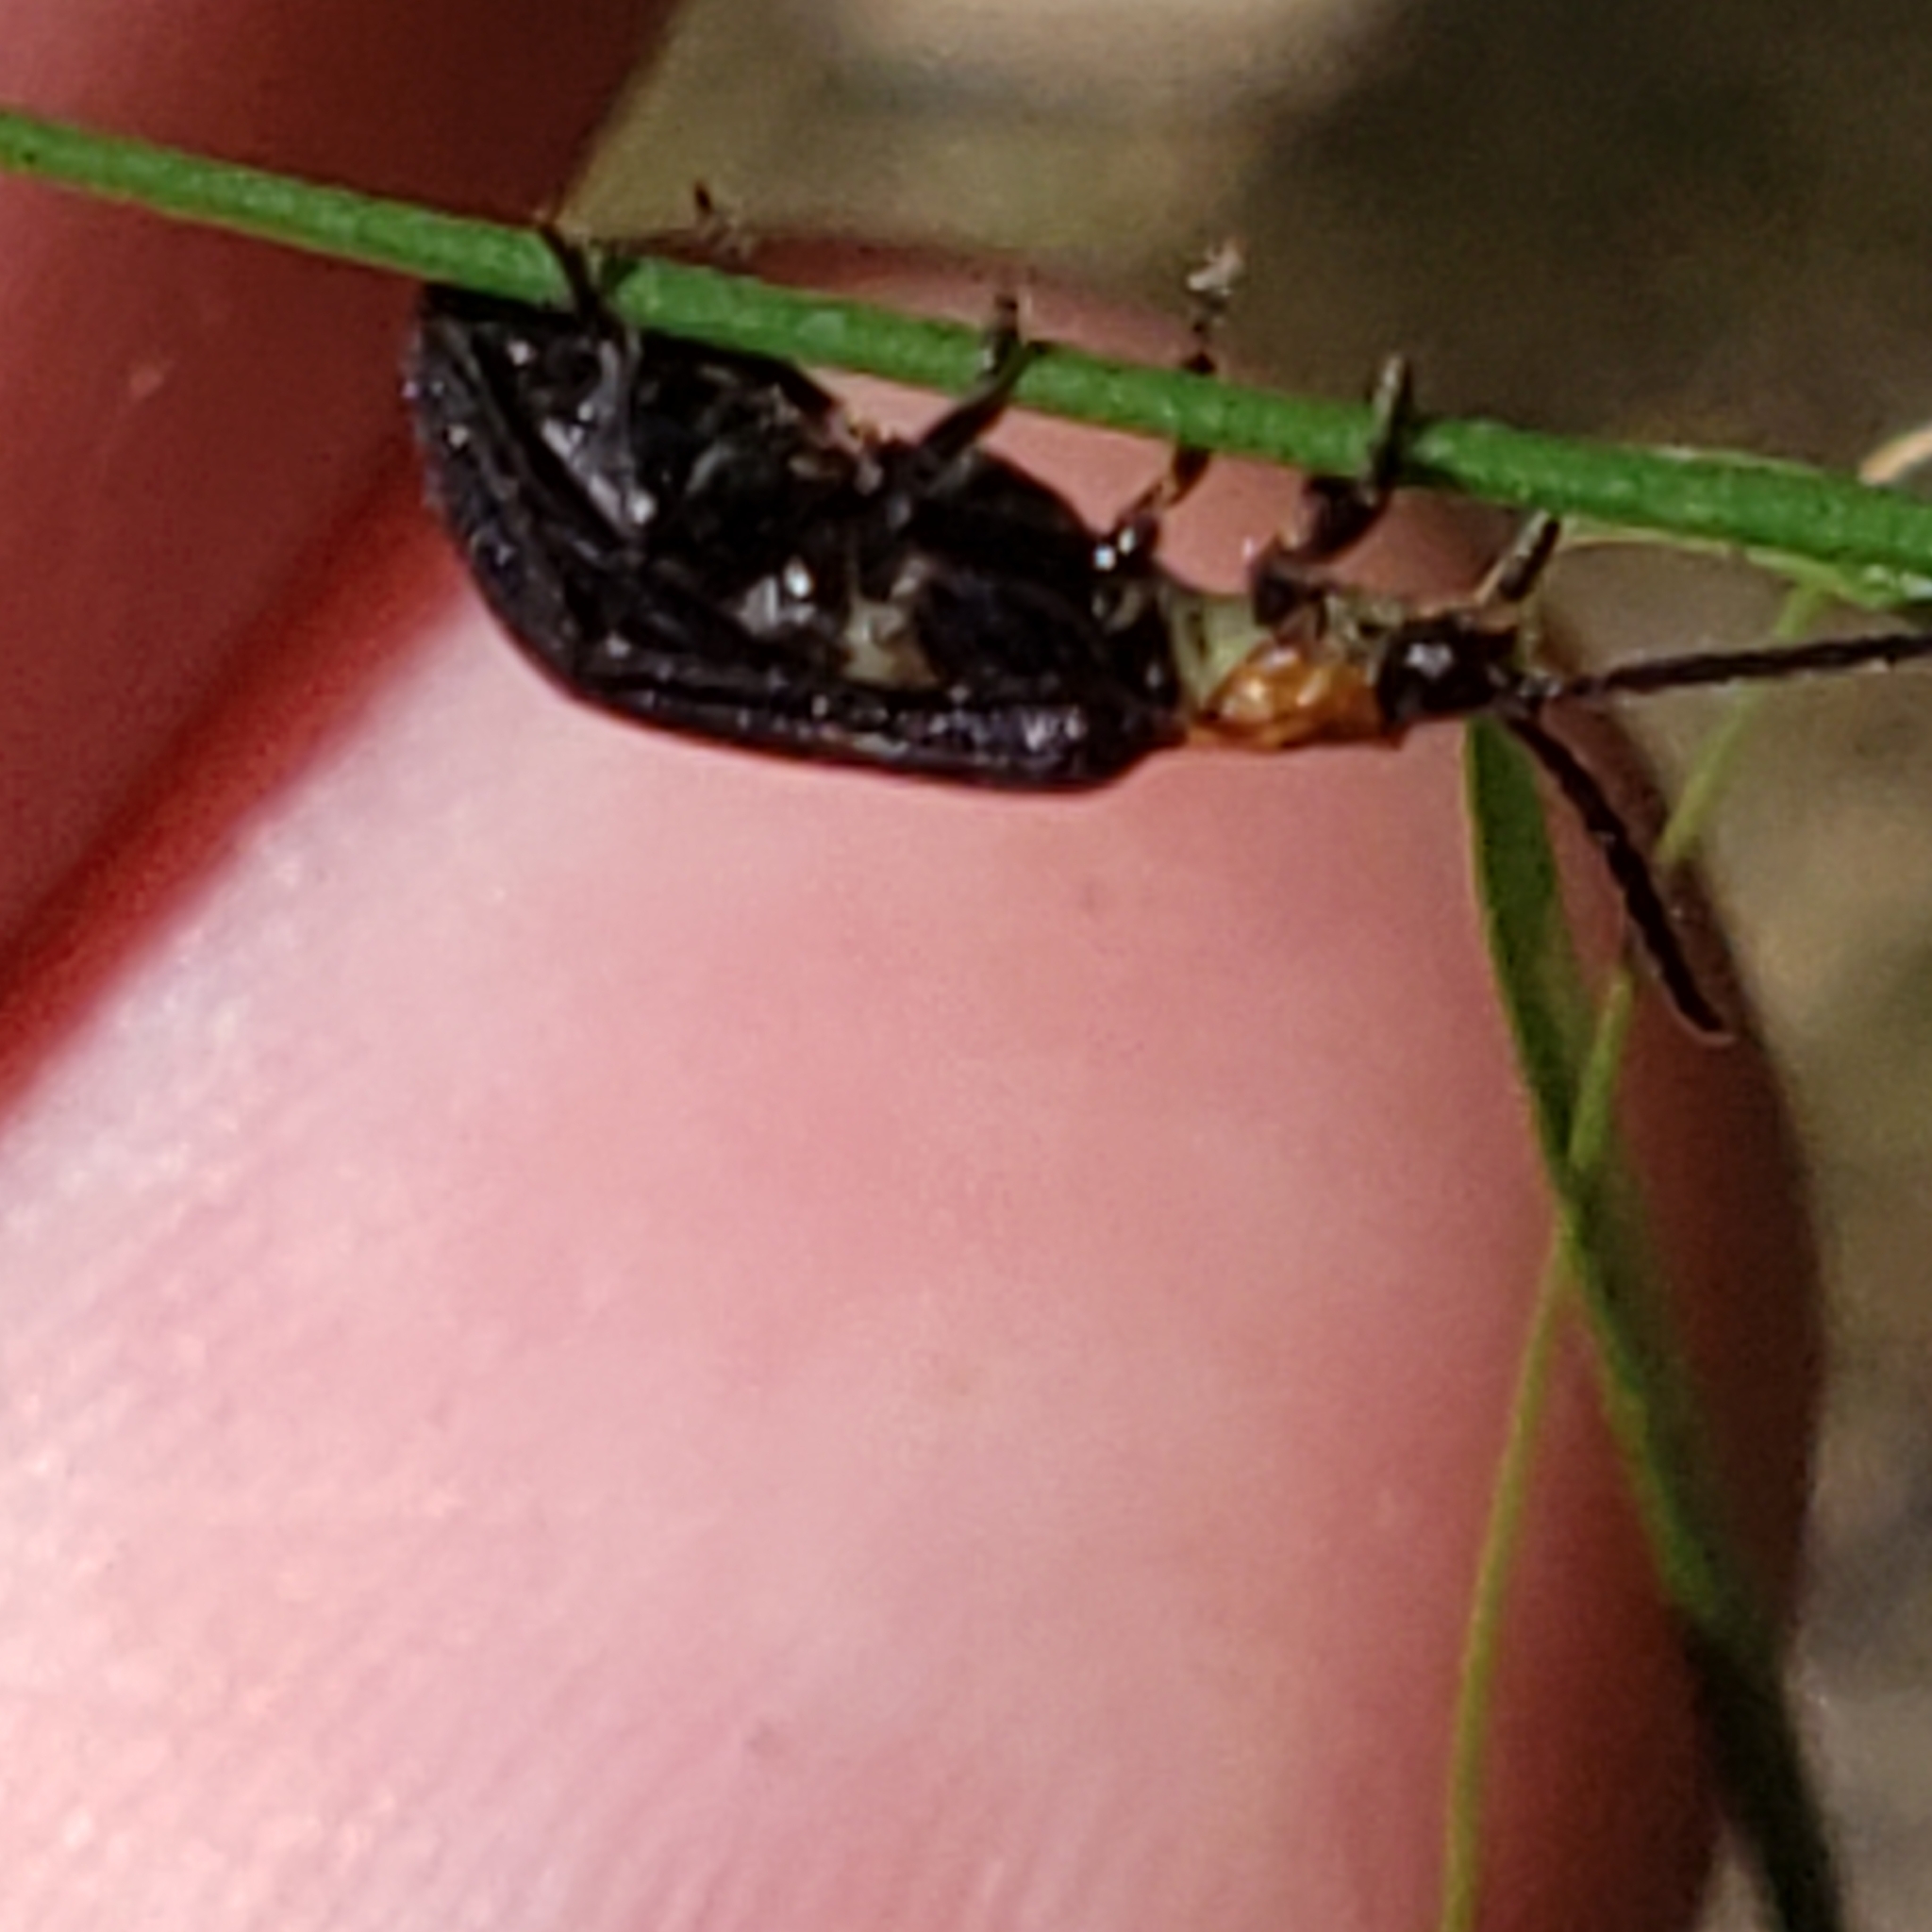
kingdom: Animalia
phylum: Arthropoda
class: Insecta
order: Coleoptera
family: Lycidae
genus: Eropterus
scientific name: Eropterus trilineatus
